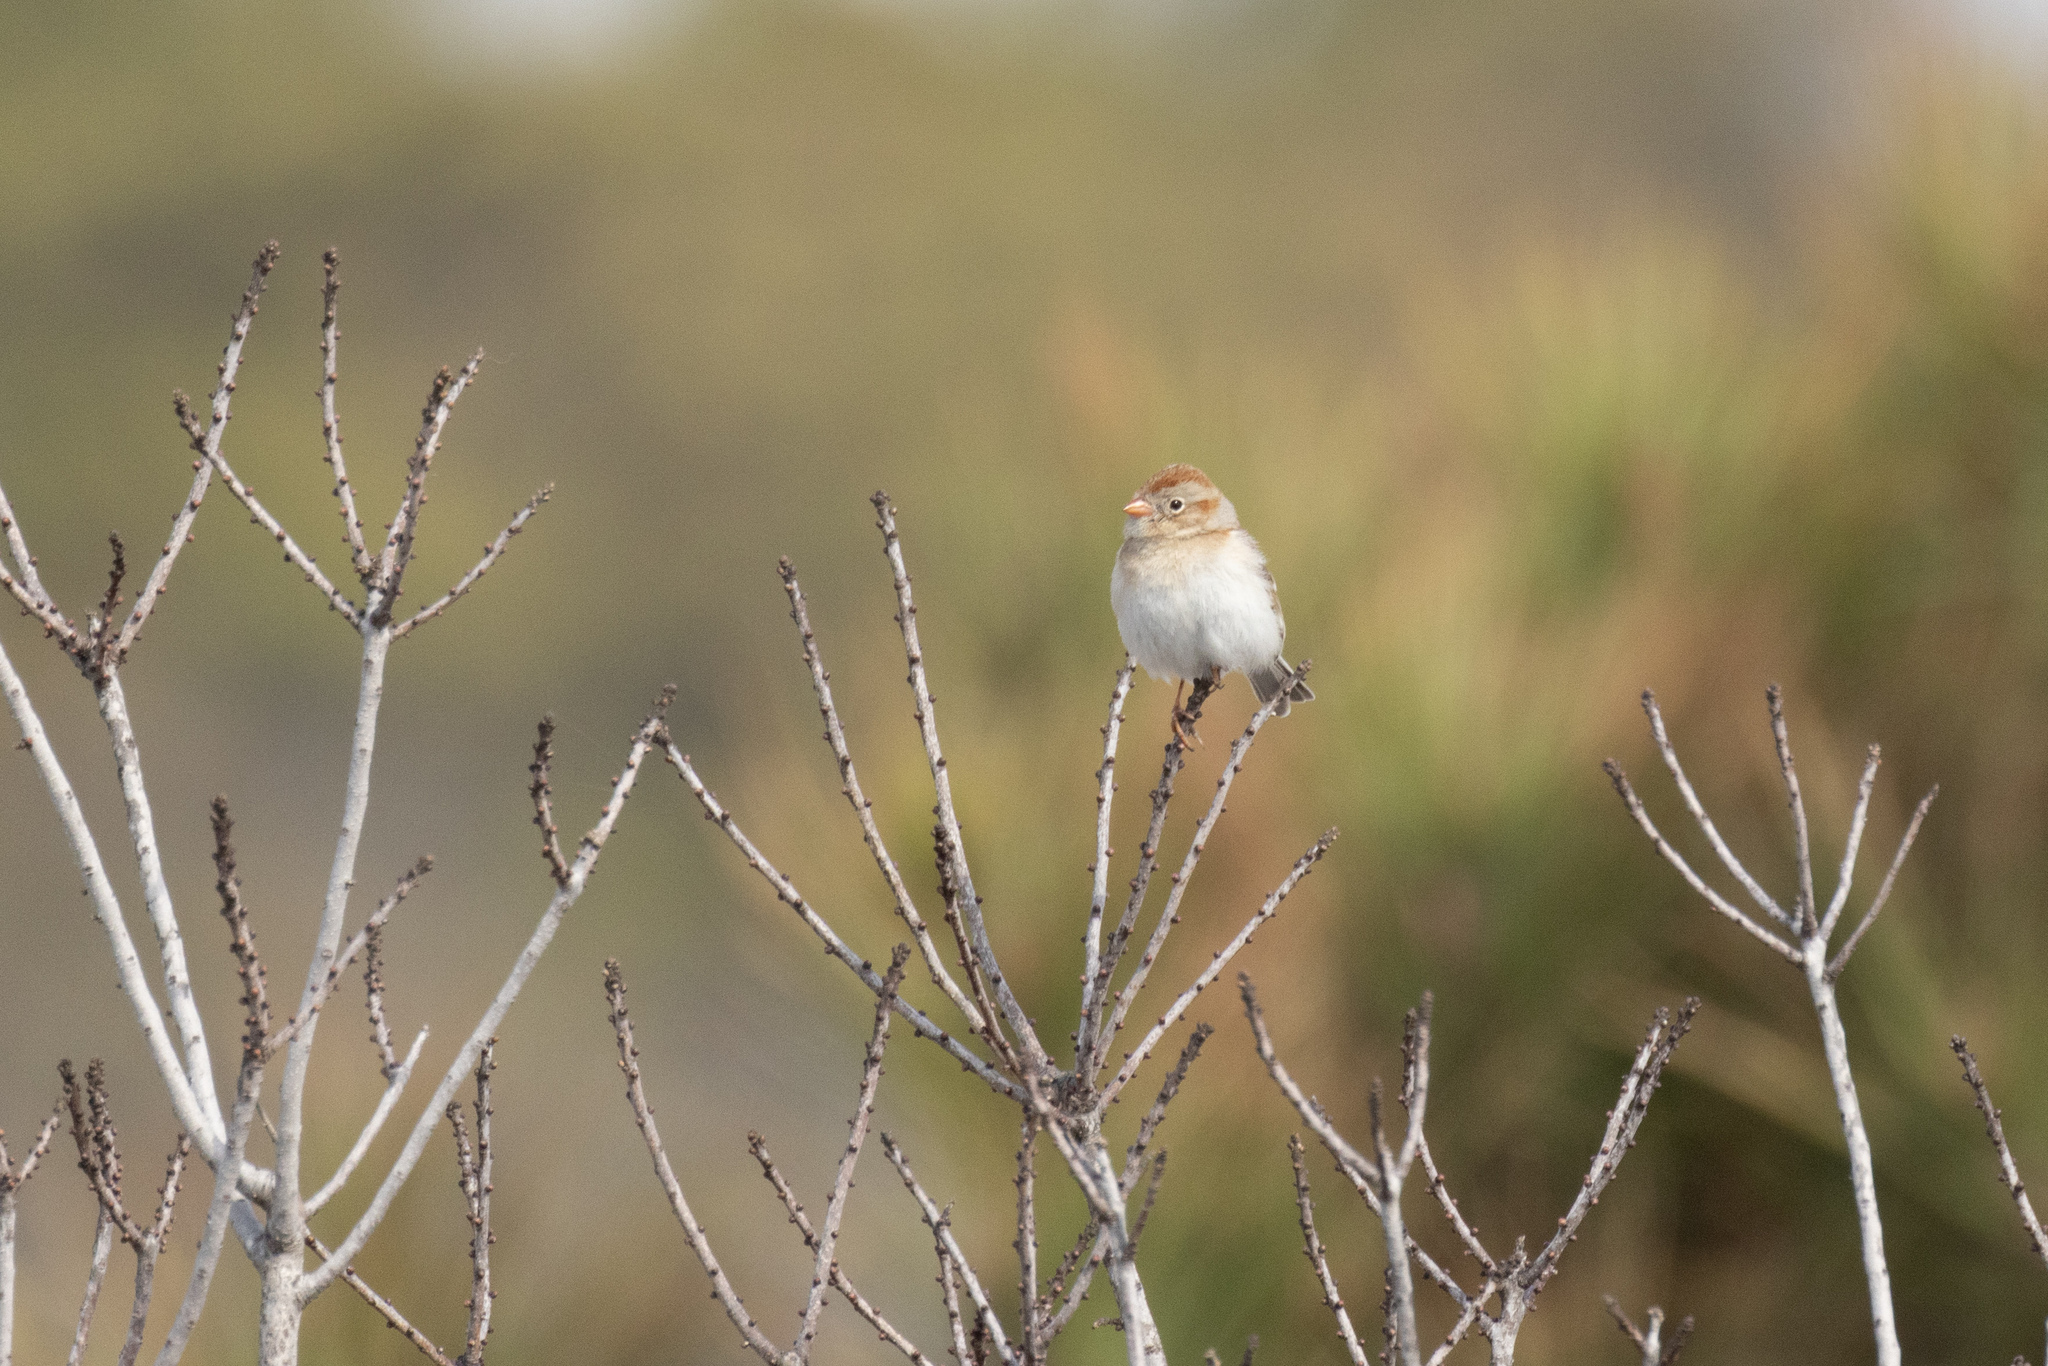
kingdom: Animalia
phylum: Chordata
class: Aves
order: Passeriformes
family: Passerellidae
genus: Spizella
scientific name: Spizella pusilla
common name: Field sparrow
